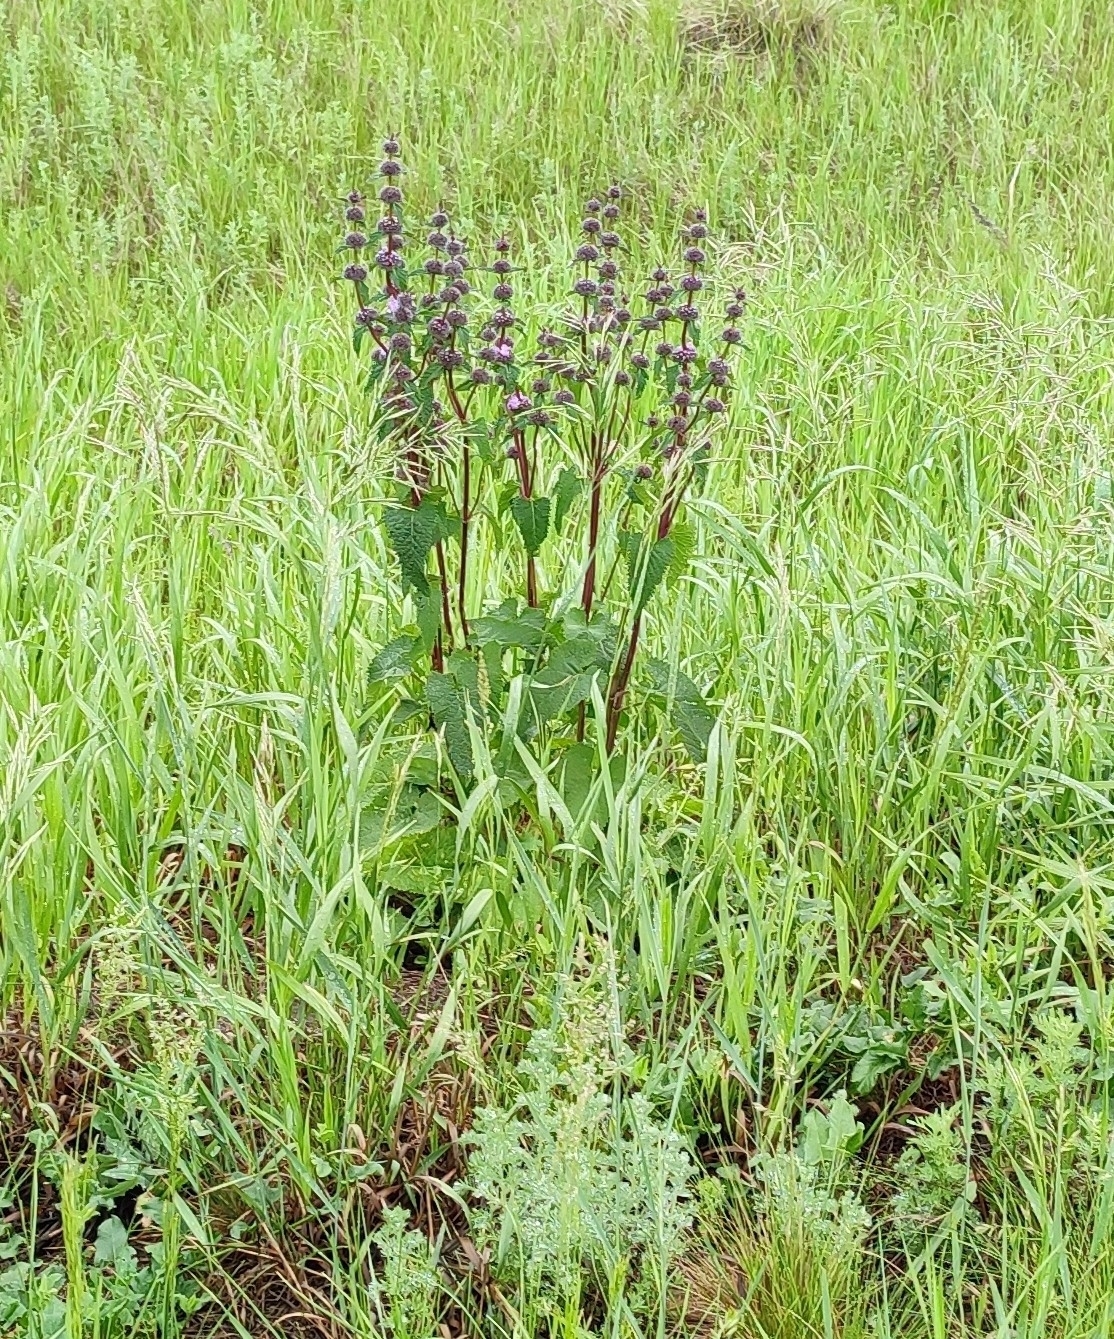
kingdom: Plantae
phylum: Tracheophyta
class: Magnoliopsida
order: Lamiales
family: Lamiaceae
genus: Phlomoides
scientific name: Phlomoides tuberosa
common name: Tuberous jerusalem sage
